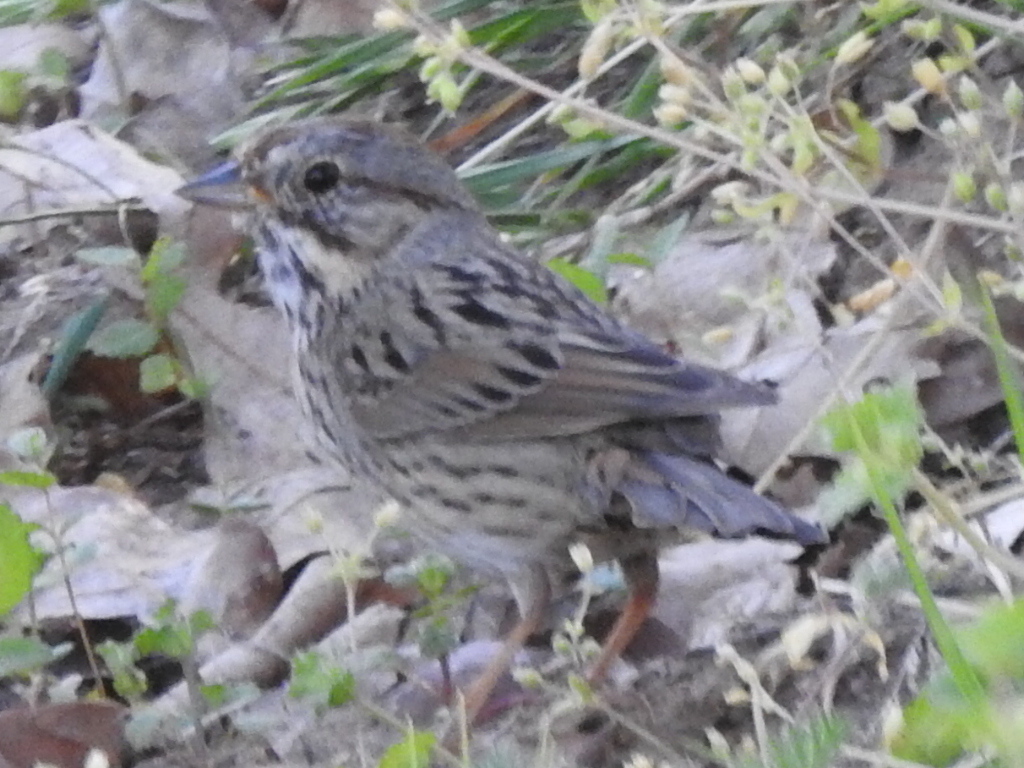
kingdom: Animalia
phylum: Chordata
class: Aves
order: Passeriformes
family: Passerellidae
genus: Melospiza
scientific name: Melospiza lincolnii
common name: Lincoln's sparrow
